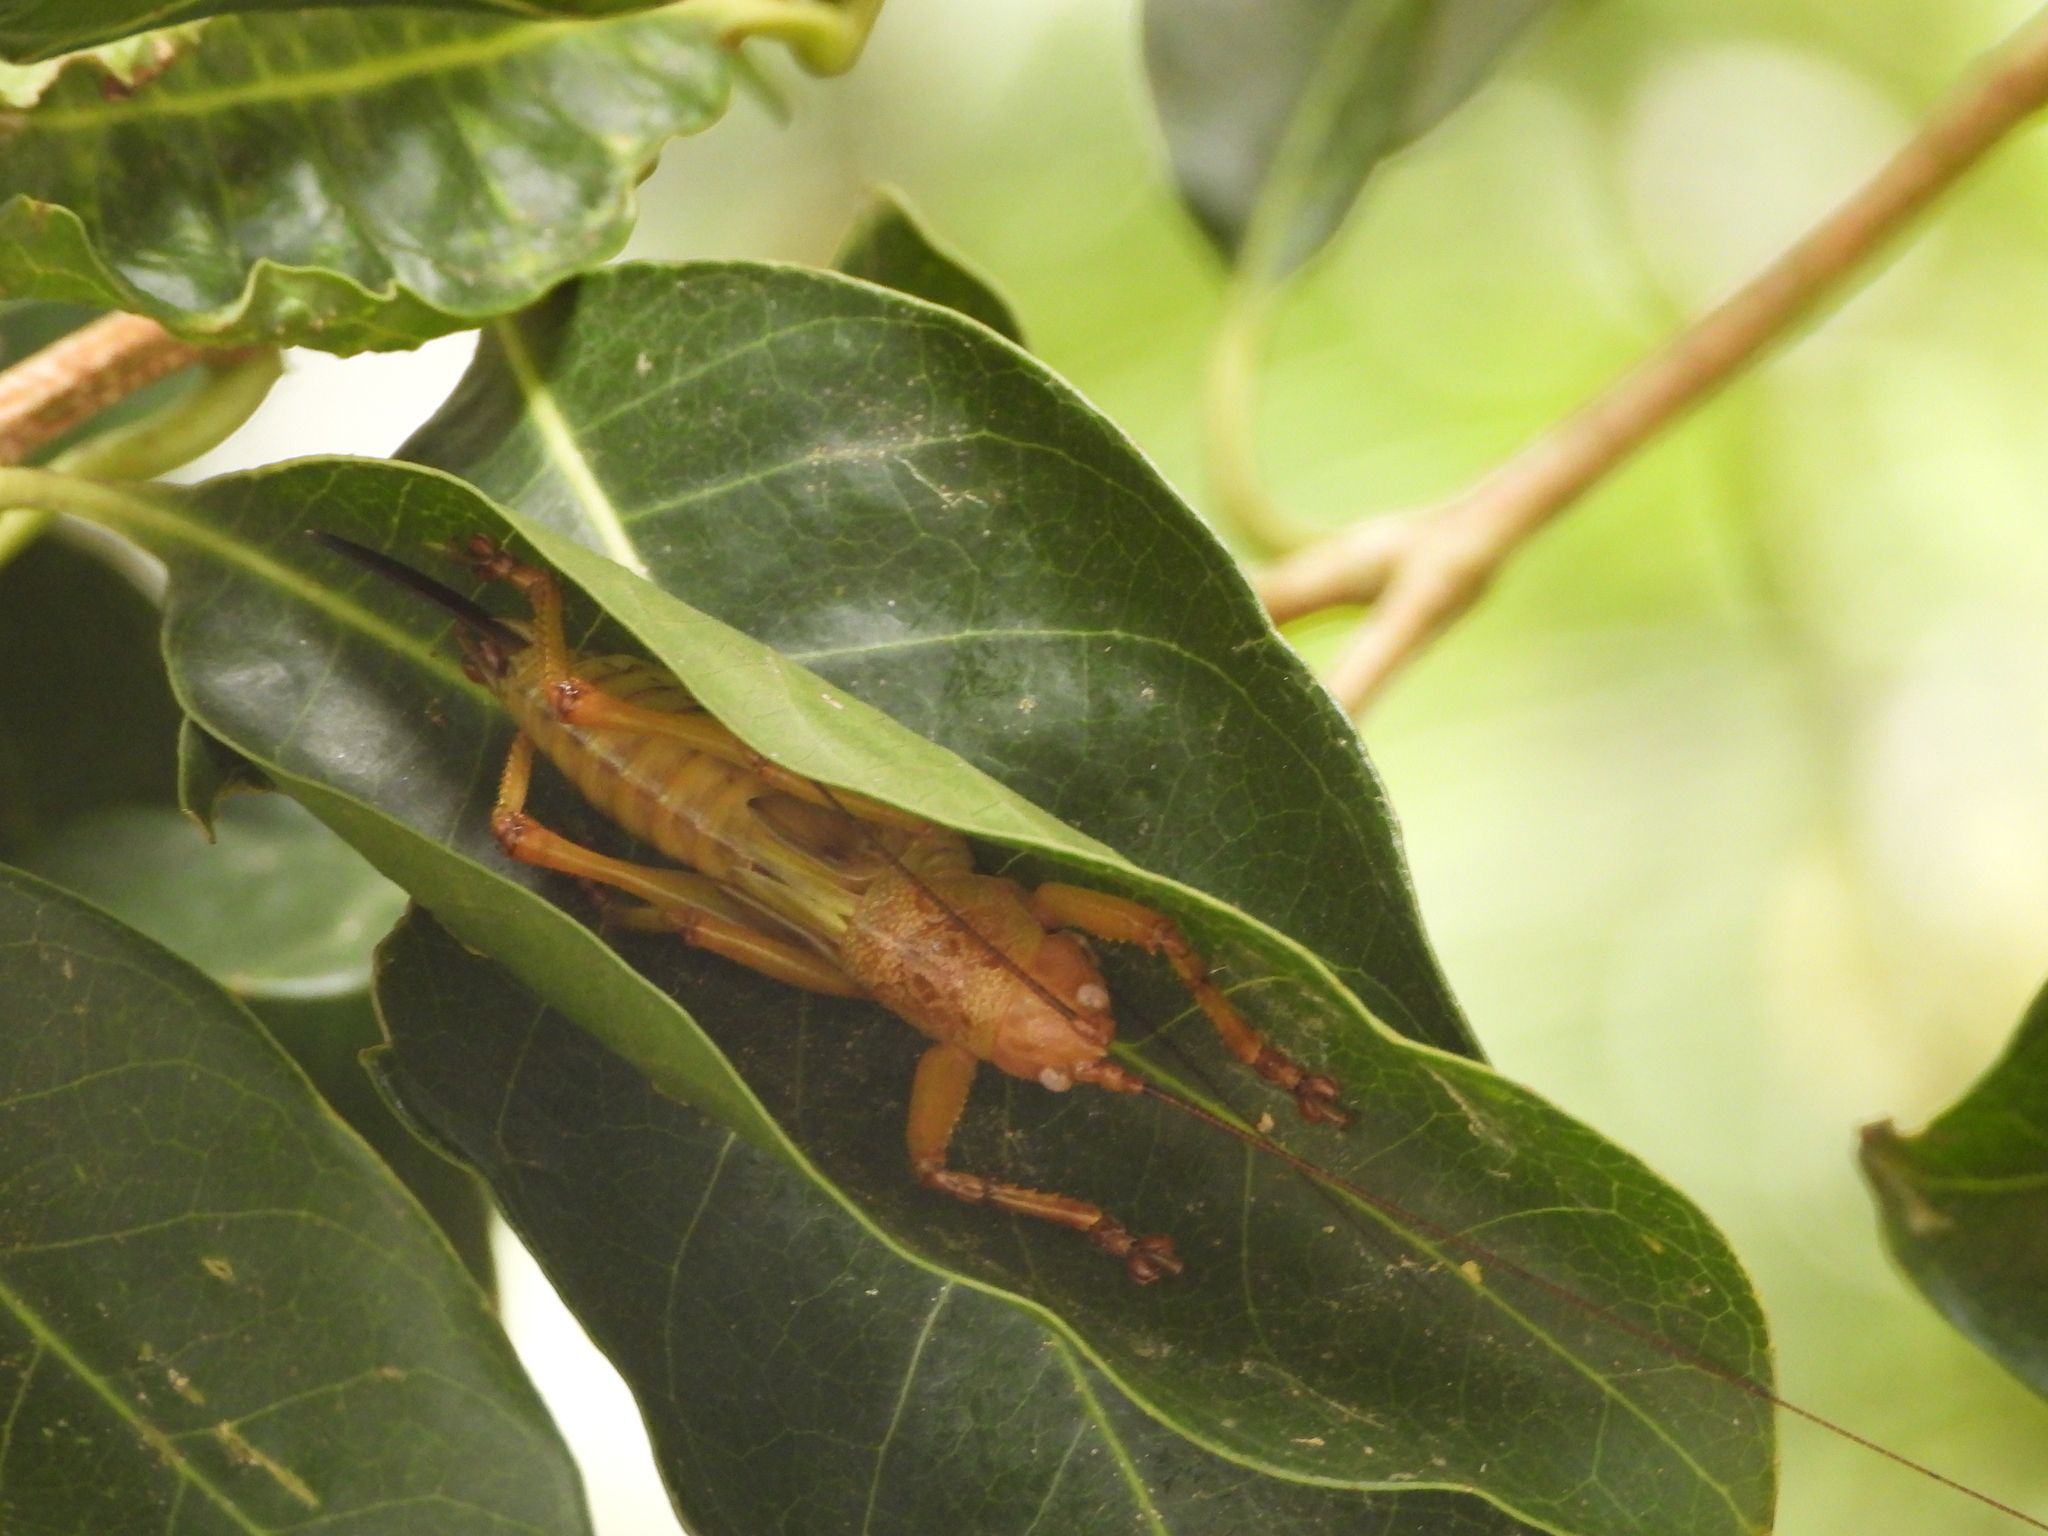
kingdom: Animalia
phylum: Arthropoda
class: Insecta
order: Orthoptera
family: Tettigoniidae
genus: Salomona
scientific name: Salomona ogatai
